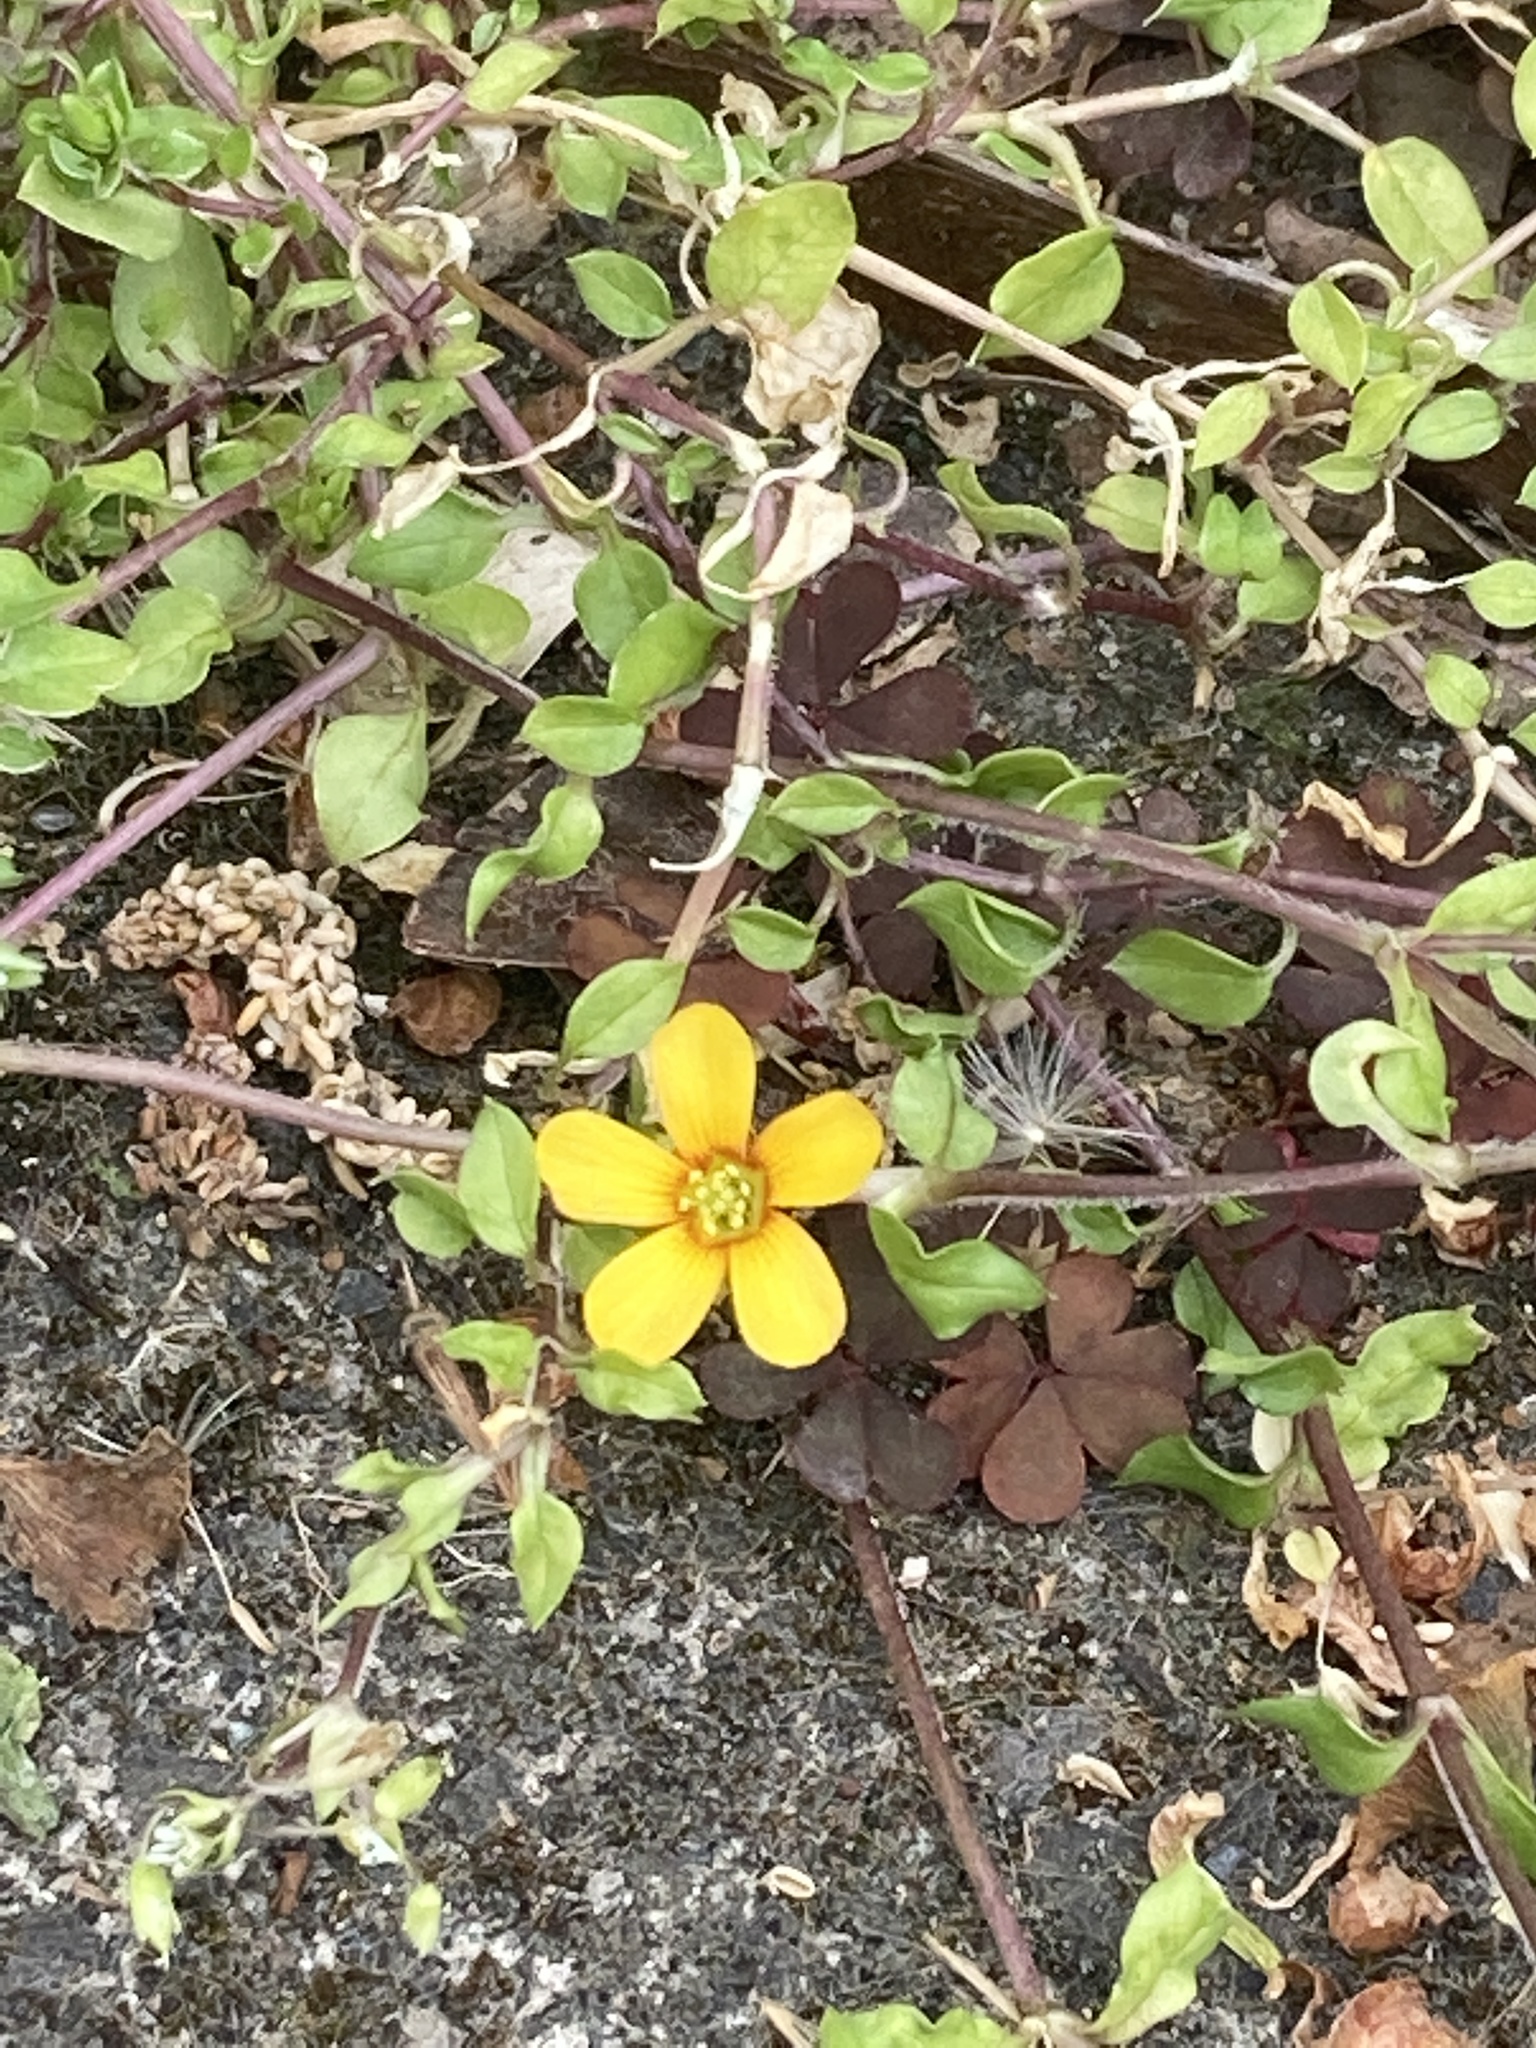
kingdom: Plantae
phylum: Tracheophyta
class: Magnoliopsida
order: Oxalidales
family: Oxalidaceae
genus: Oxalis
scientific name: Oxalis corniculata
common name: Procumbent yellow-sorrel
